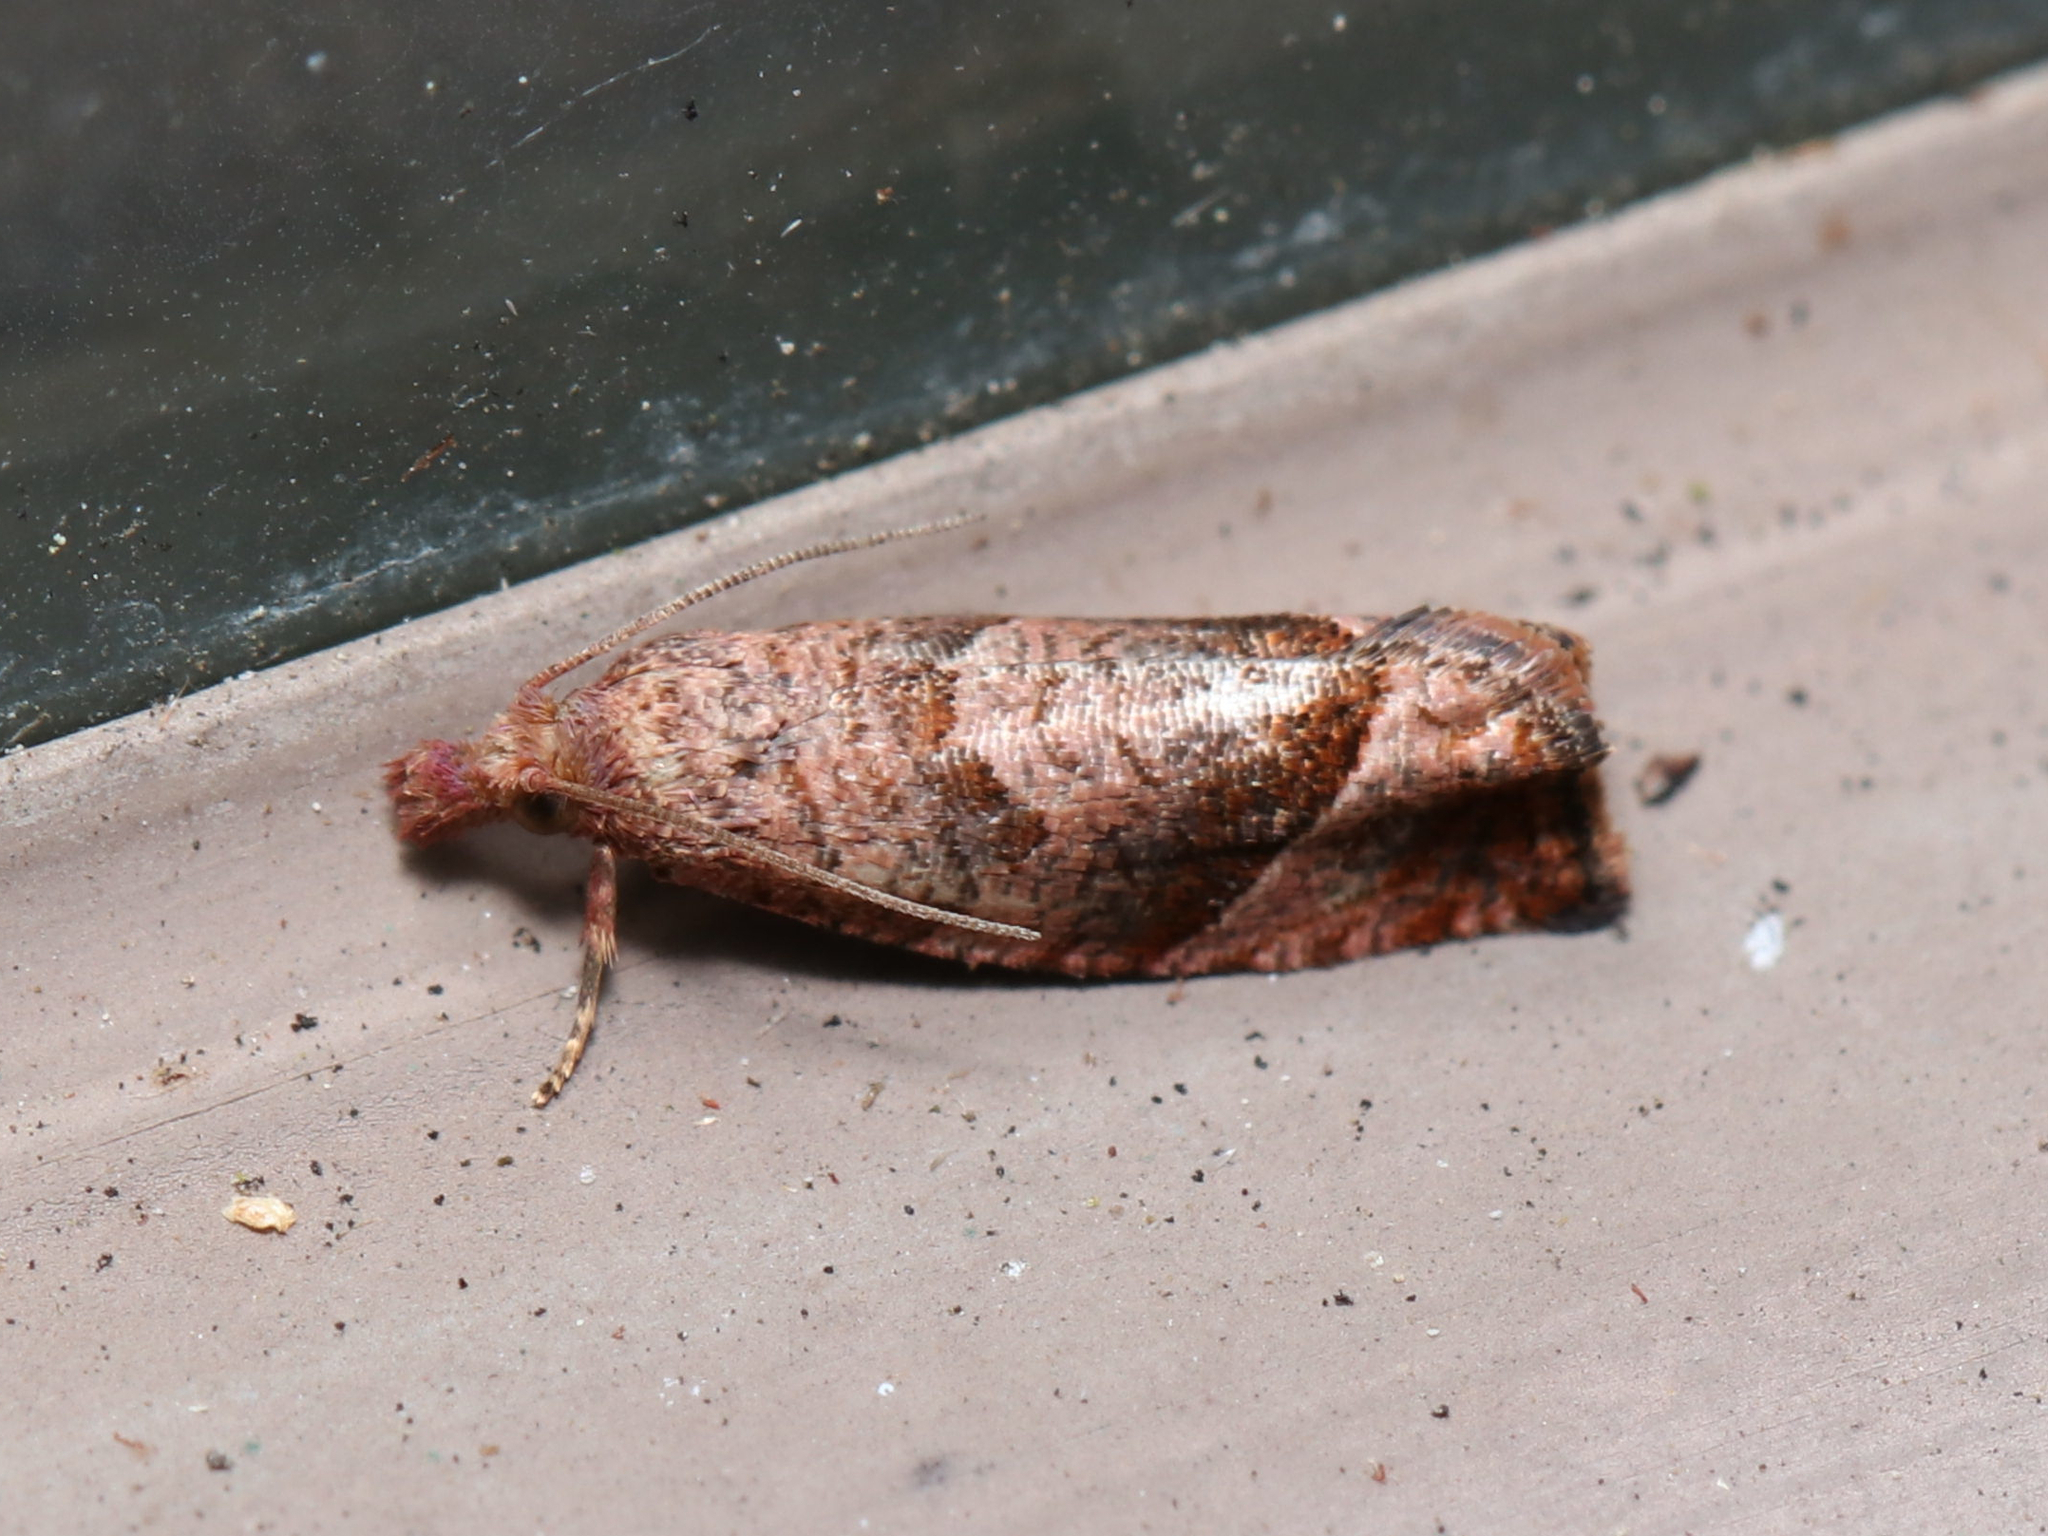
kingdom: Animalia
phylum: Arthropoda
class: Insecta
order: Lepidoptera
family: Tortricidae
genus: Pelochrista
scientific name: Pelochrista derelicta
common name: Derelict pelochrista moth
